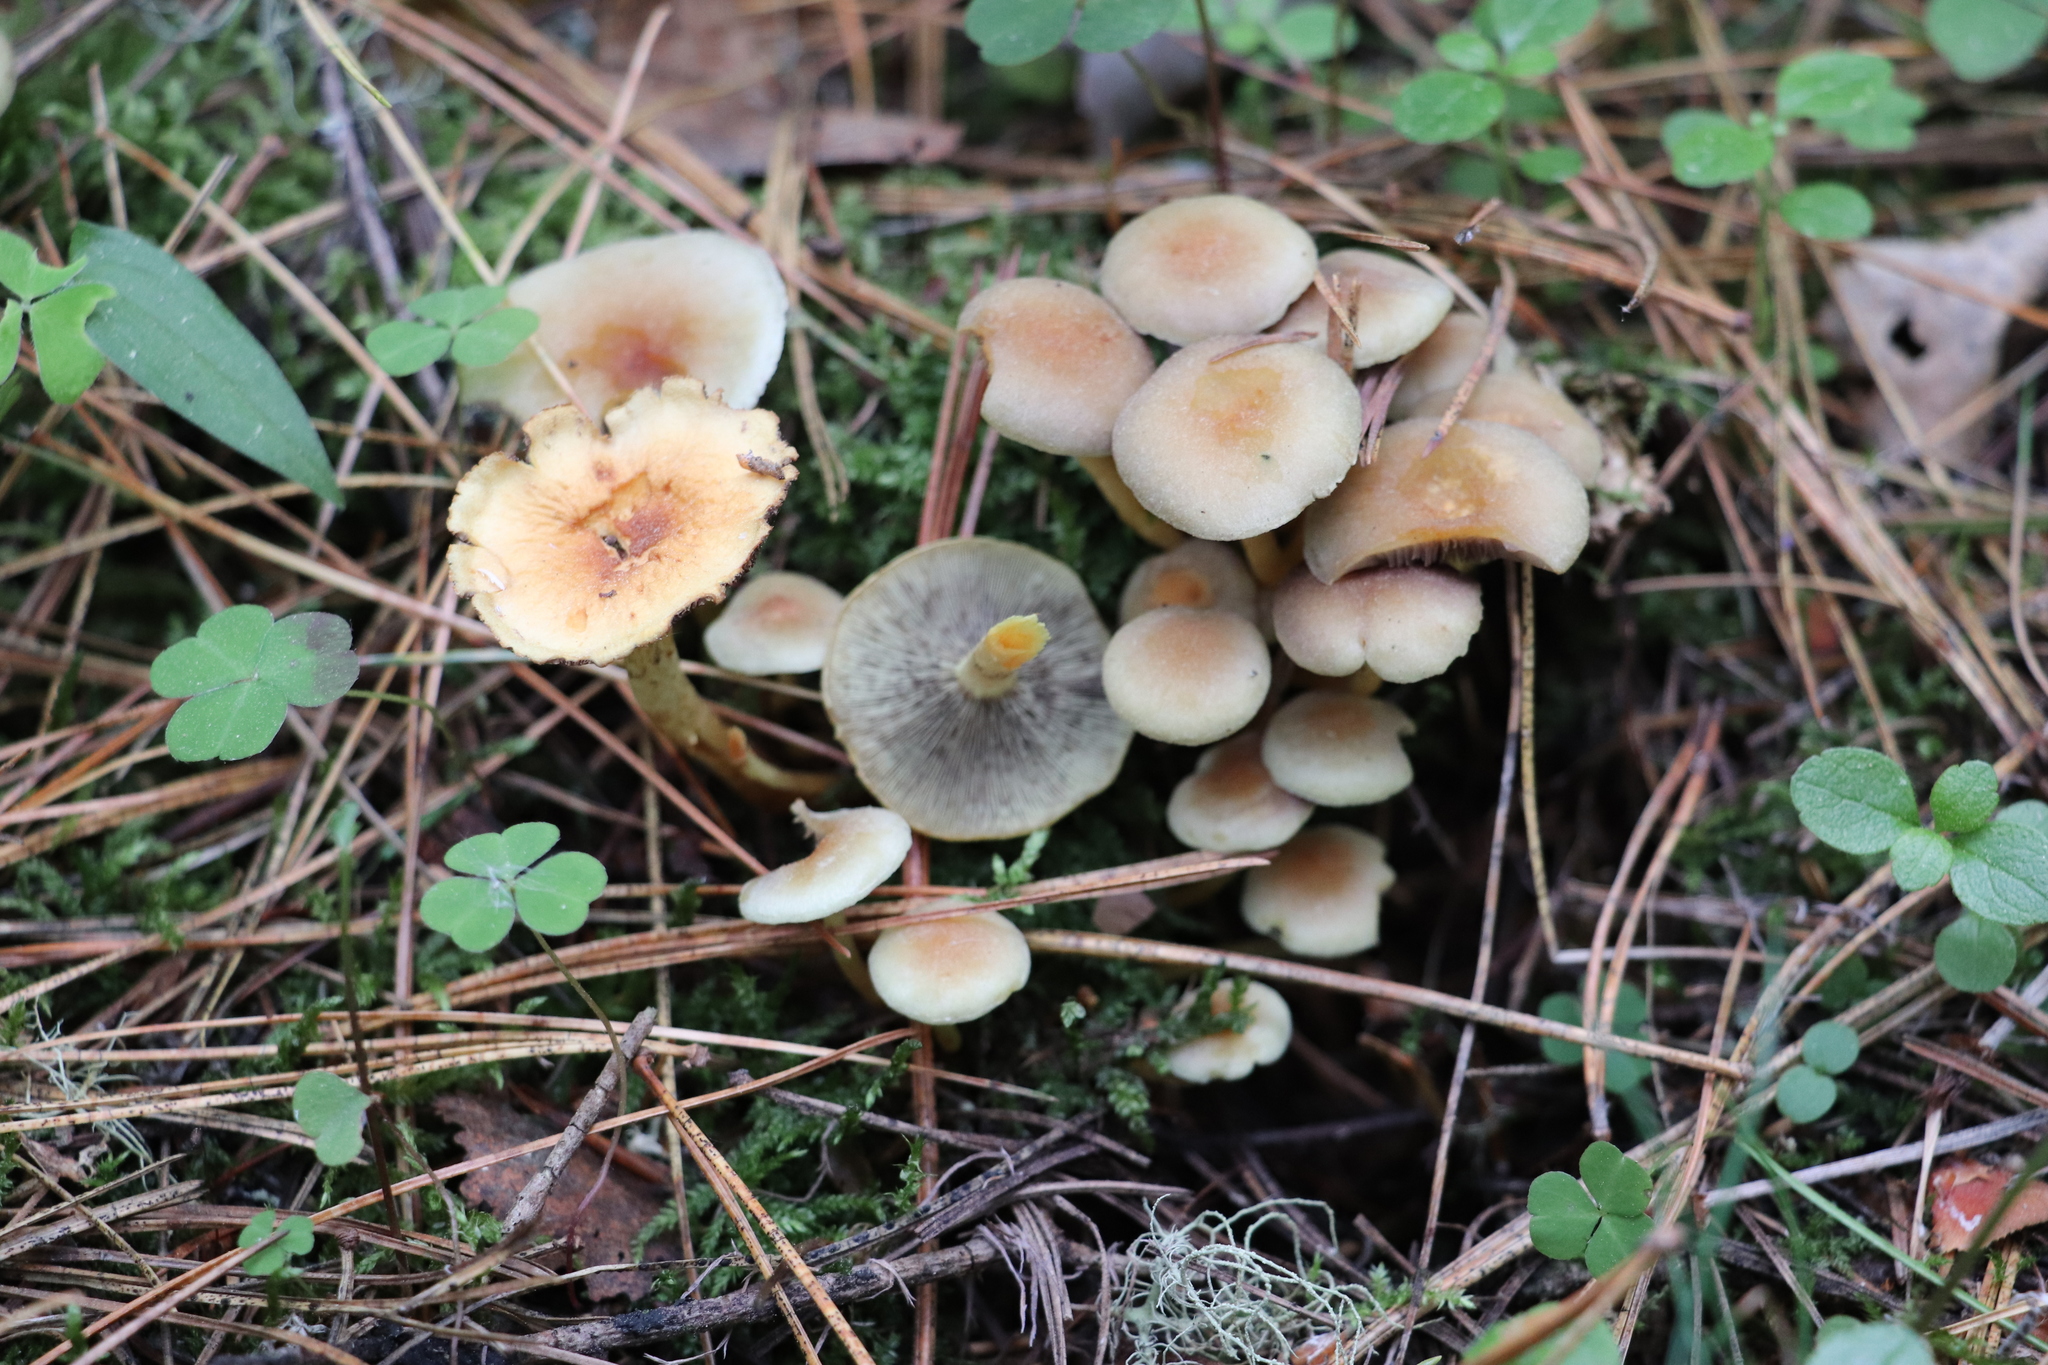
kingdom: Fungi
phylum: Basidiomycota
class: Agaricomycetes
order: Agaricales
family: Strophariaceae
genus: Hypholoma
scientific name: Hypholoma fasciculare
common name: Sulphur tuft
